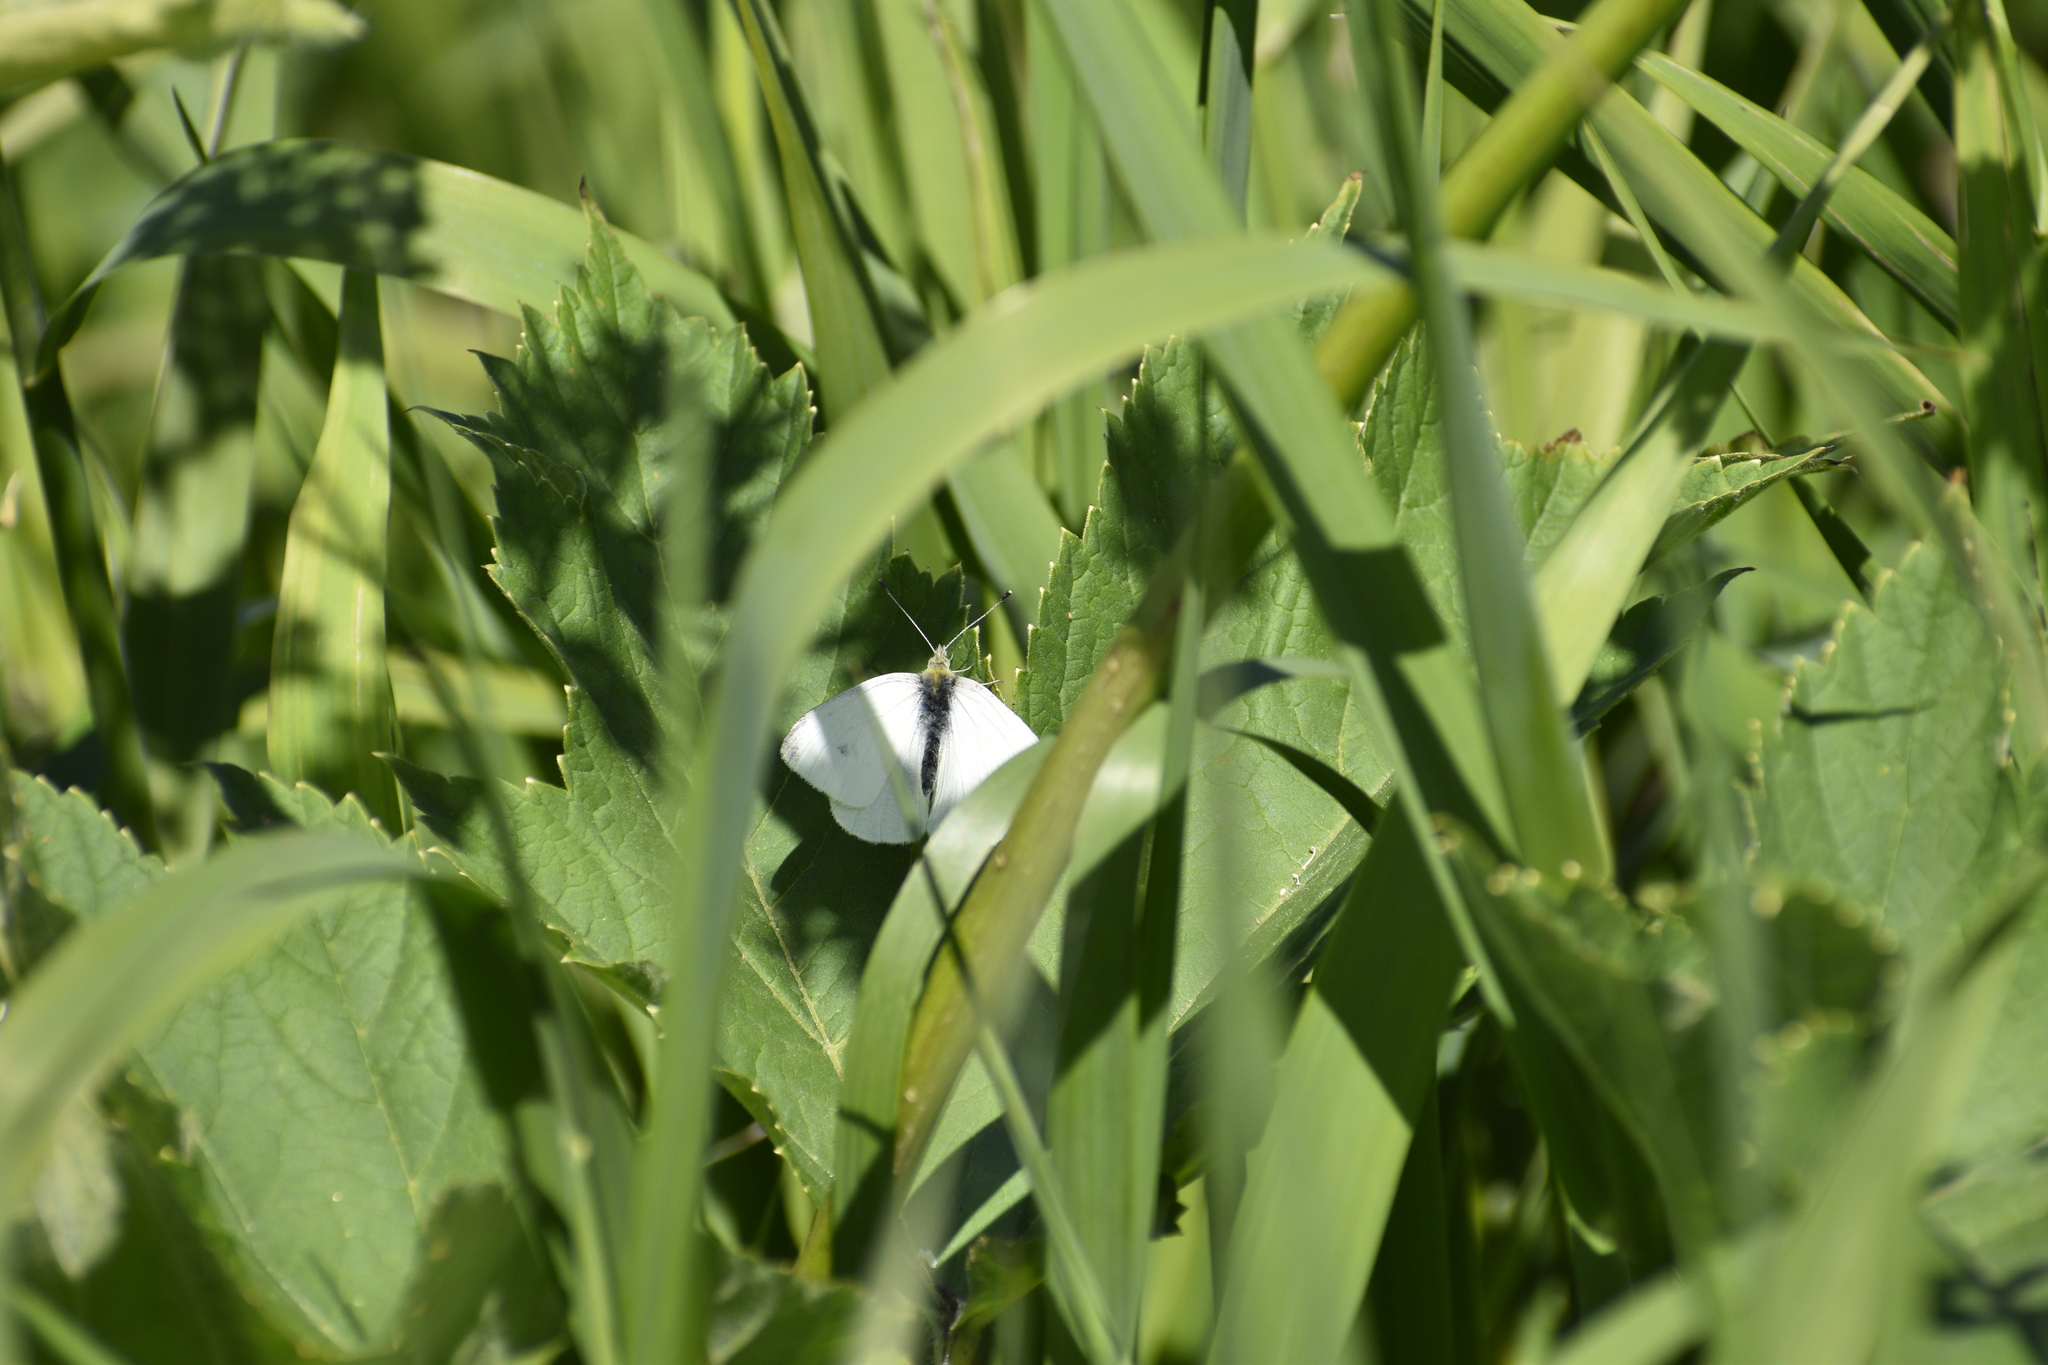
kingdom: Animalia
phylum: Arthropoda
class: Insecta
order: Lepidoptera
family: Pieridae
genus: Pieris
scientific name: Pieris rapae
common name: Small white
